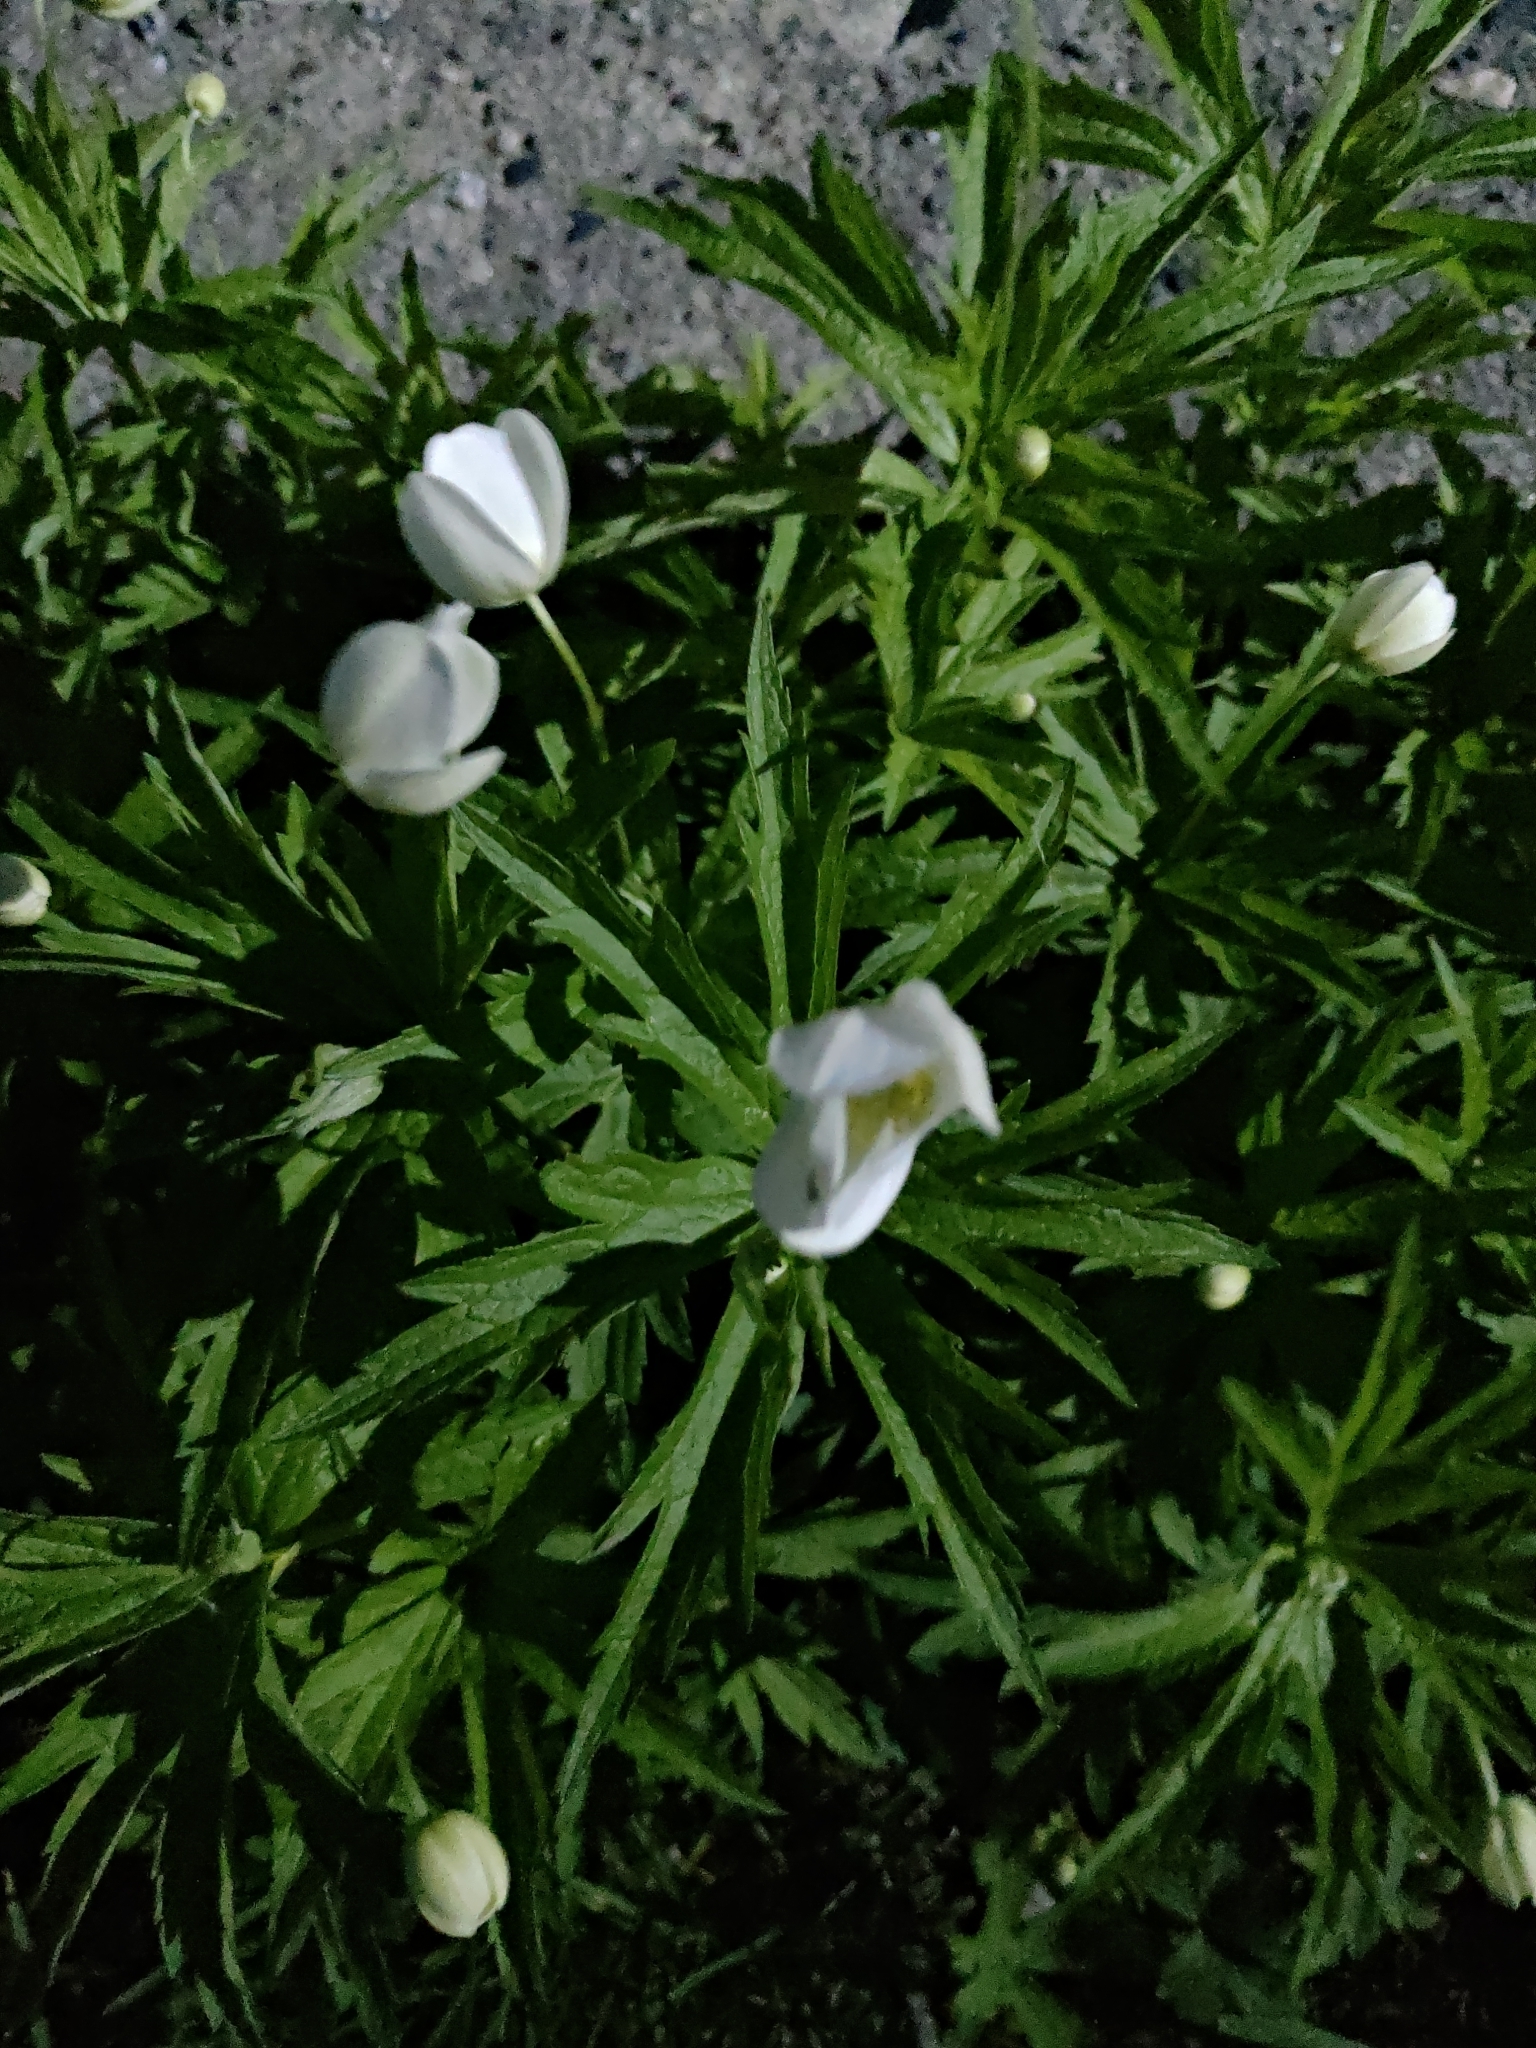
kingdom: Plantae
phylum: Tracheophyta
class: Magnoliopsida
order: Ranunculales
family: Ranunculaceae
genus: Anemonastrum
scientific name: Anemonastrum canadense
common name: Canada anemone
